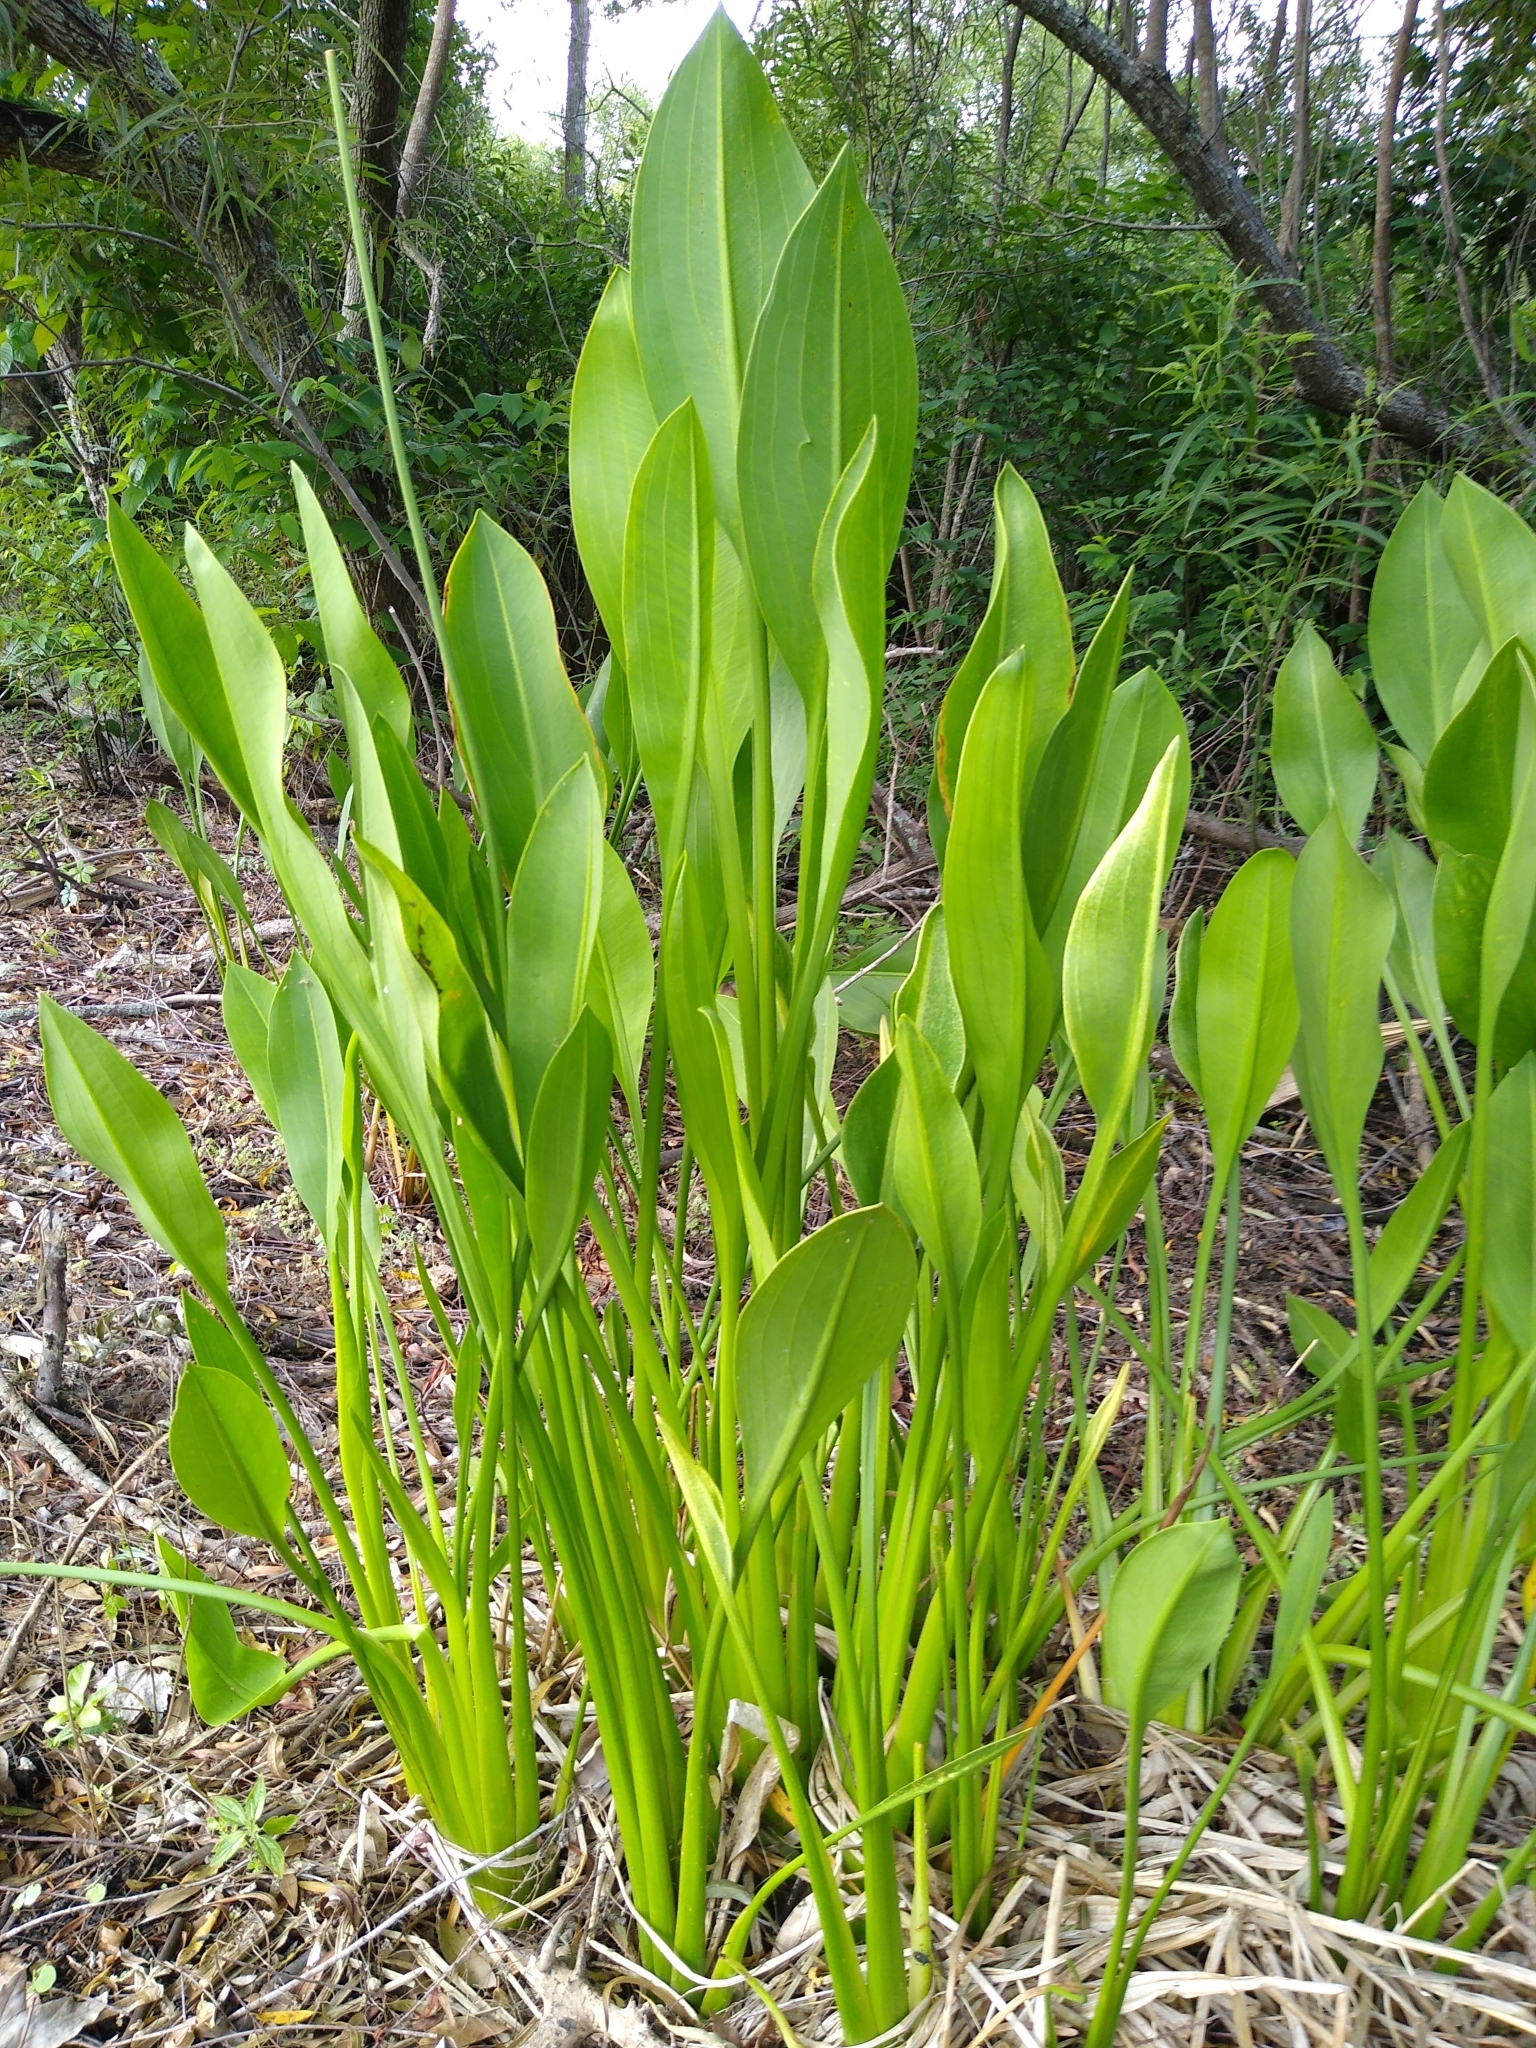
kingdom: Plantae
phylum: Tracheophyta
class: Liliopsida
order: Alismatales
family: Alismataceae
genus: Sagittaria
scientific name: Sagittaria lancifolia
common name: Lance-leaf arrowhead
